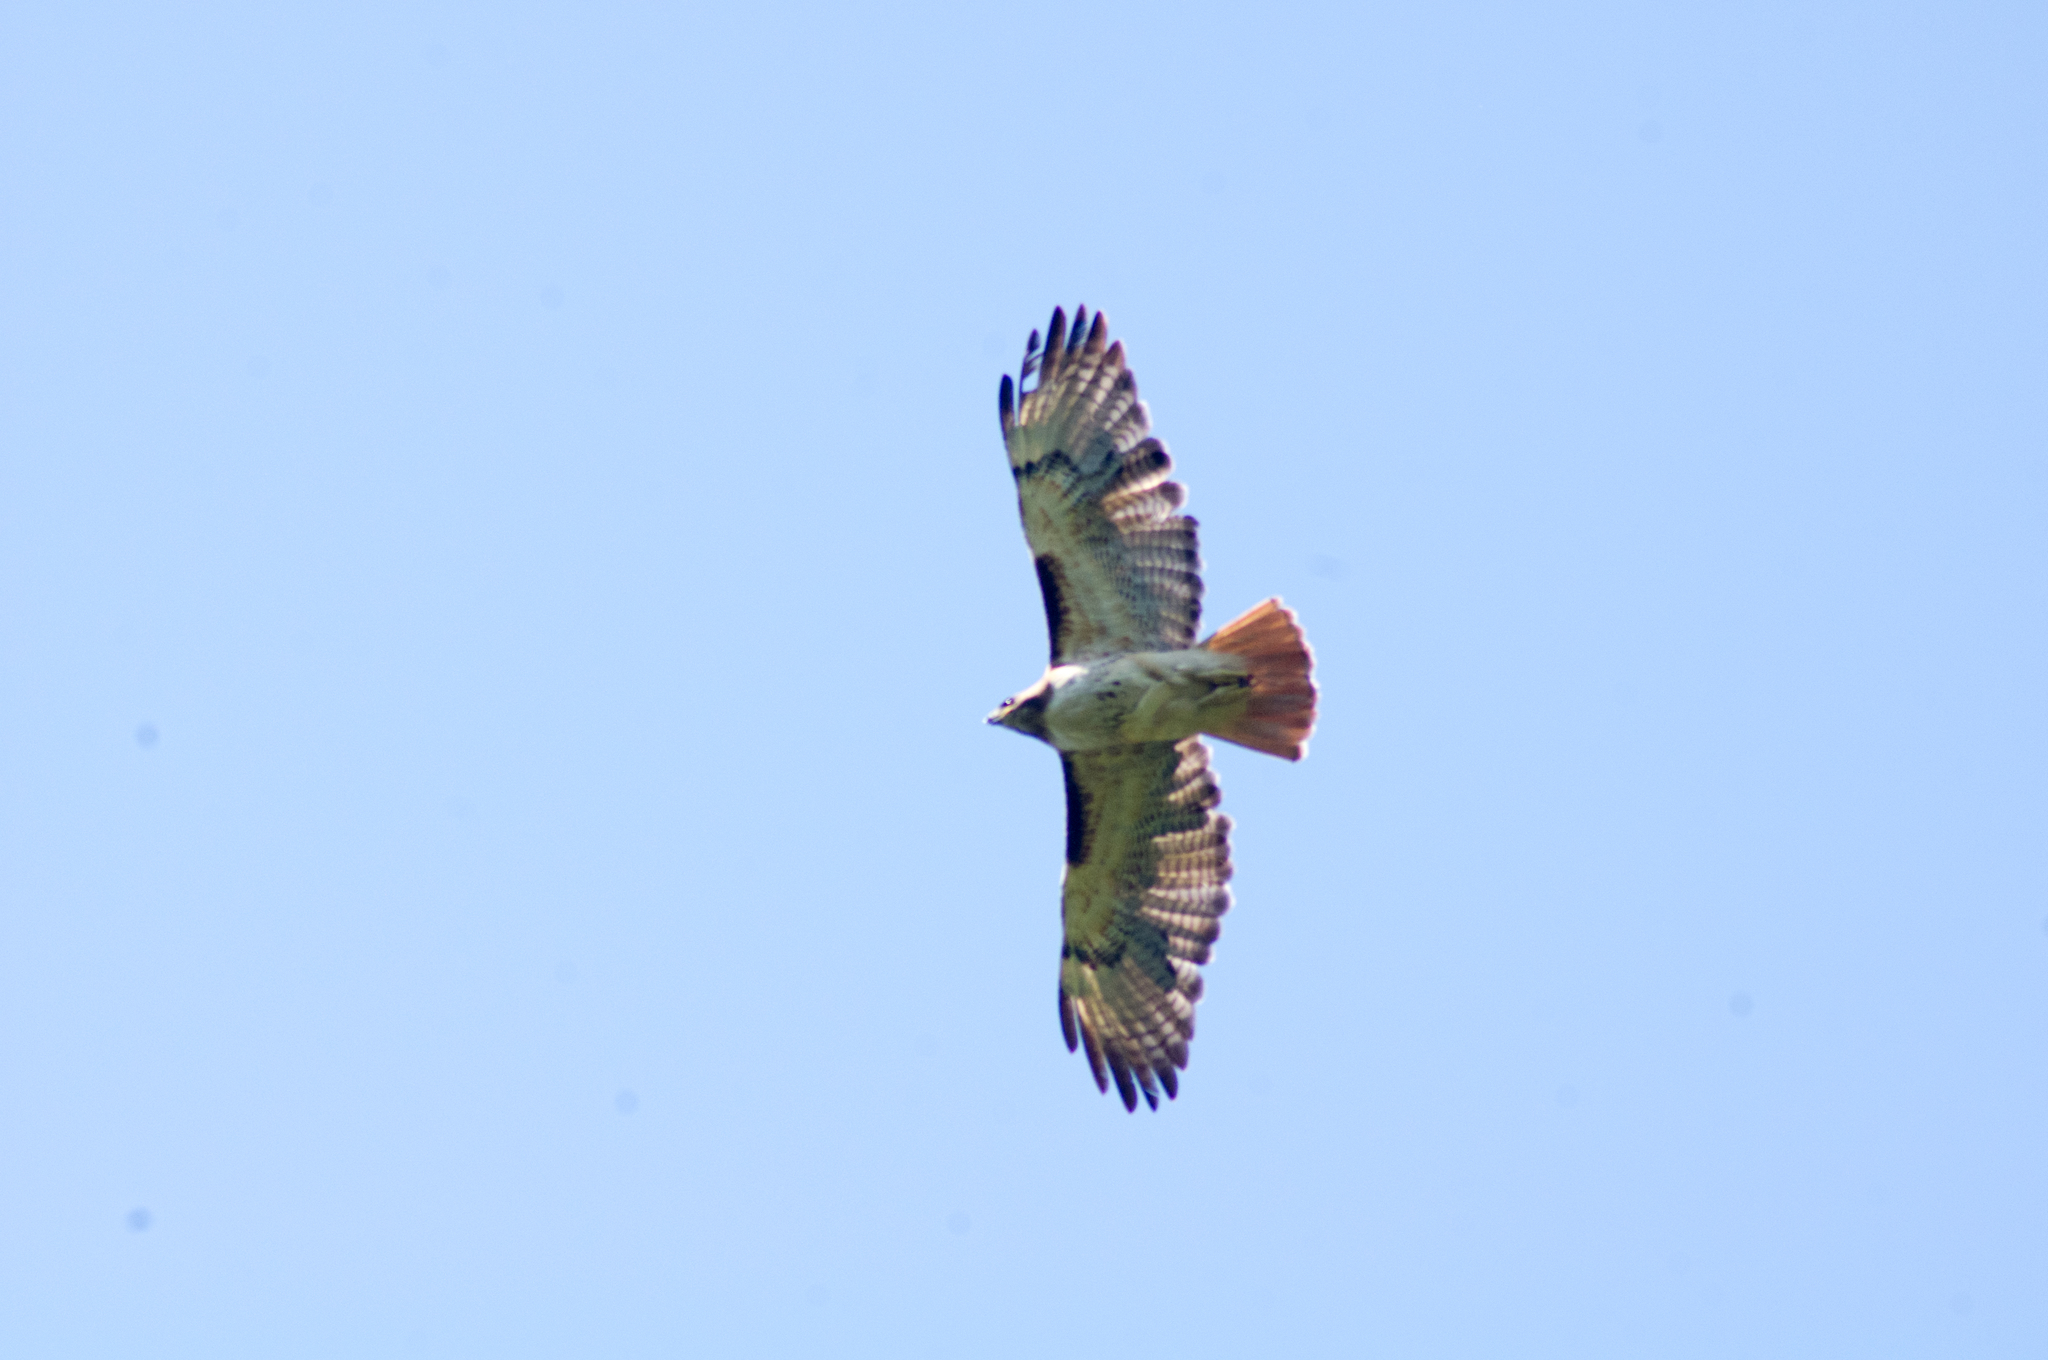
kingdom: Animalia
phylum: Chordata
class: Aves
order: Accipitriformes
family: Accipitridae
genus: Buteo
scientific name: Buteo jamaicensis
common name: Red-tailed hawk
